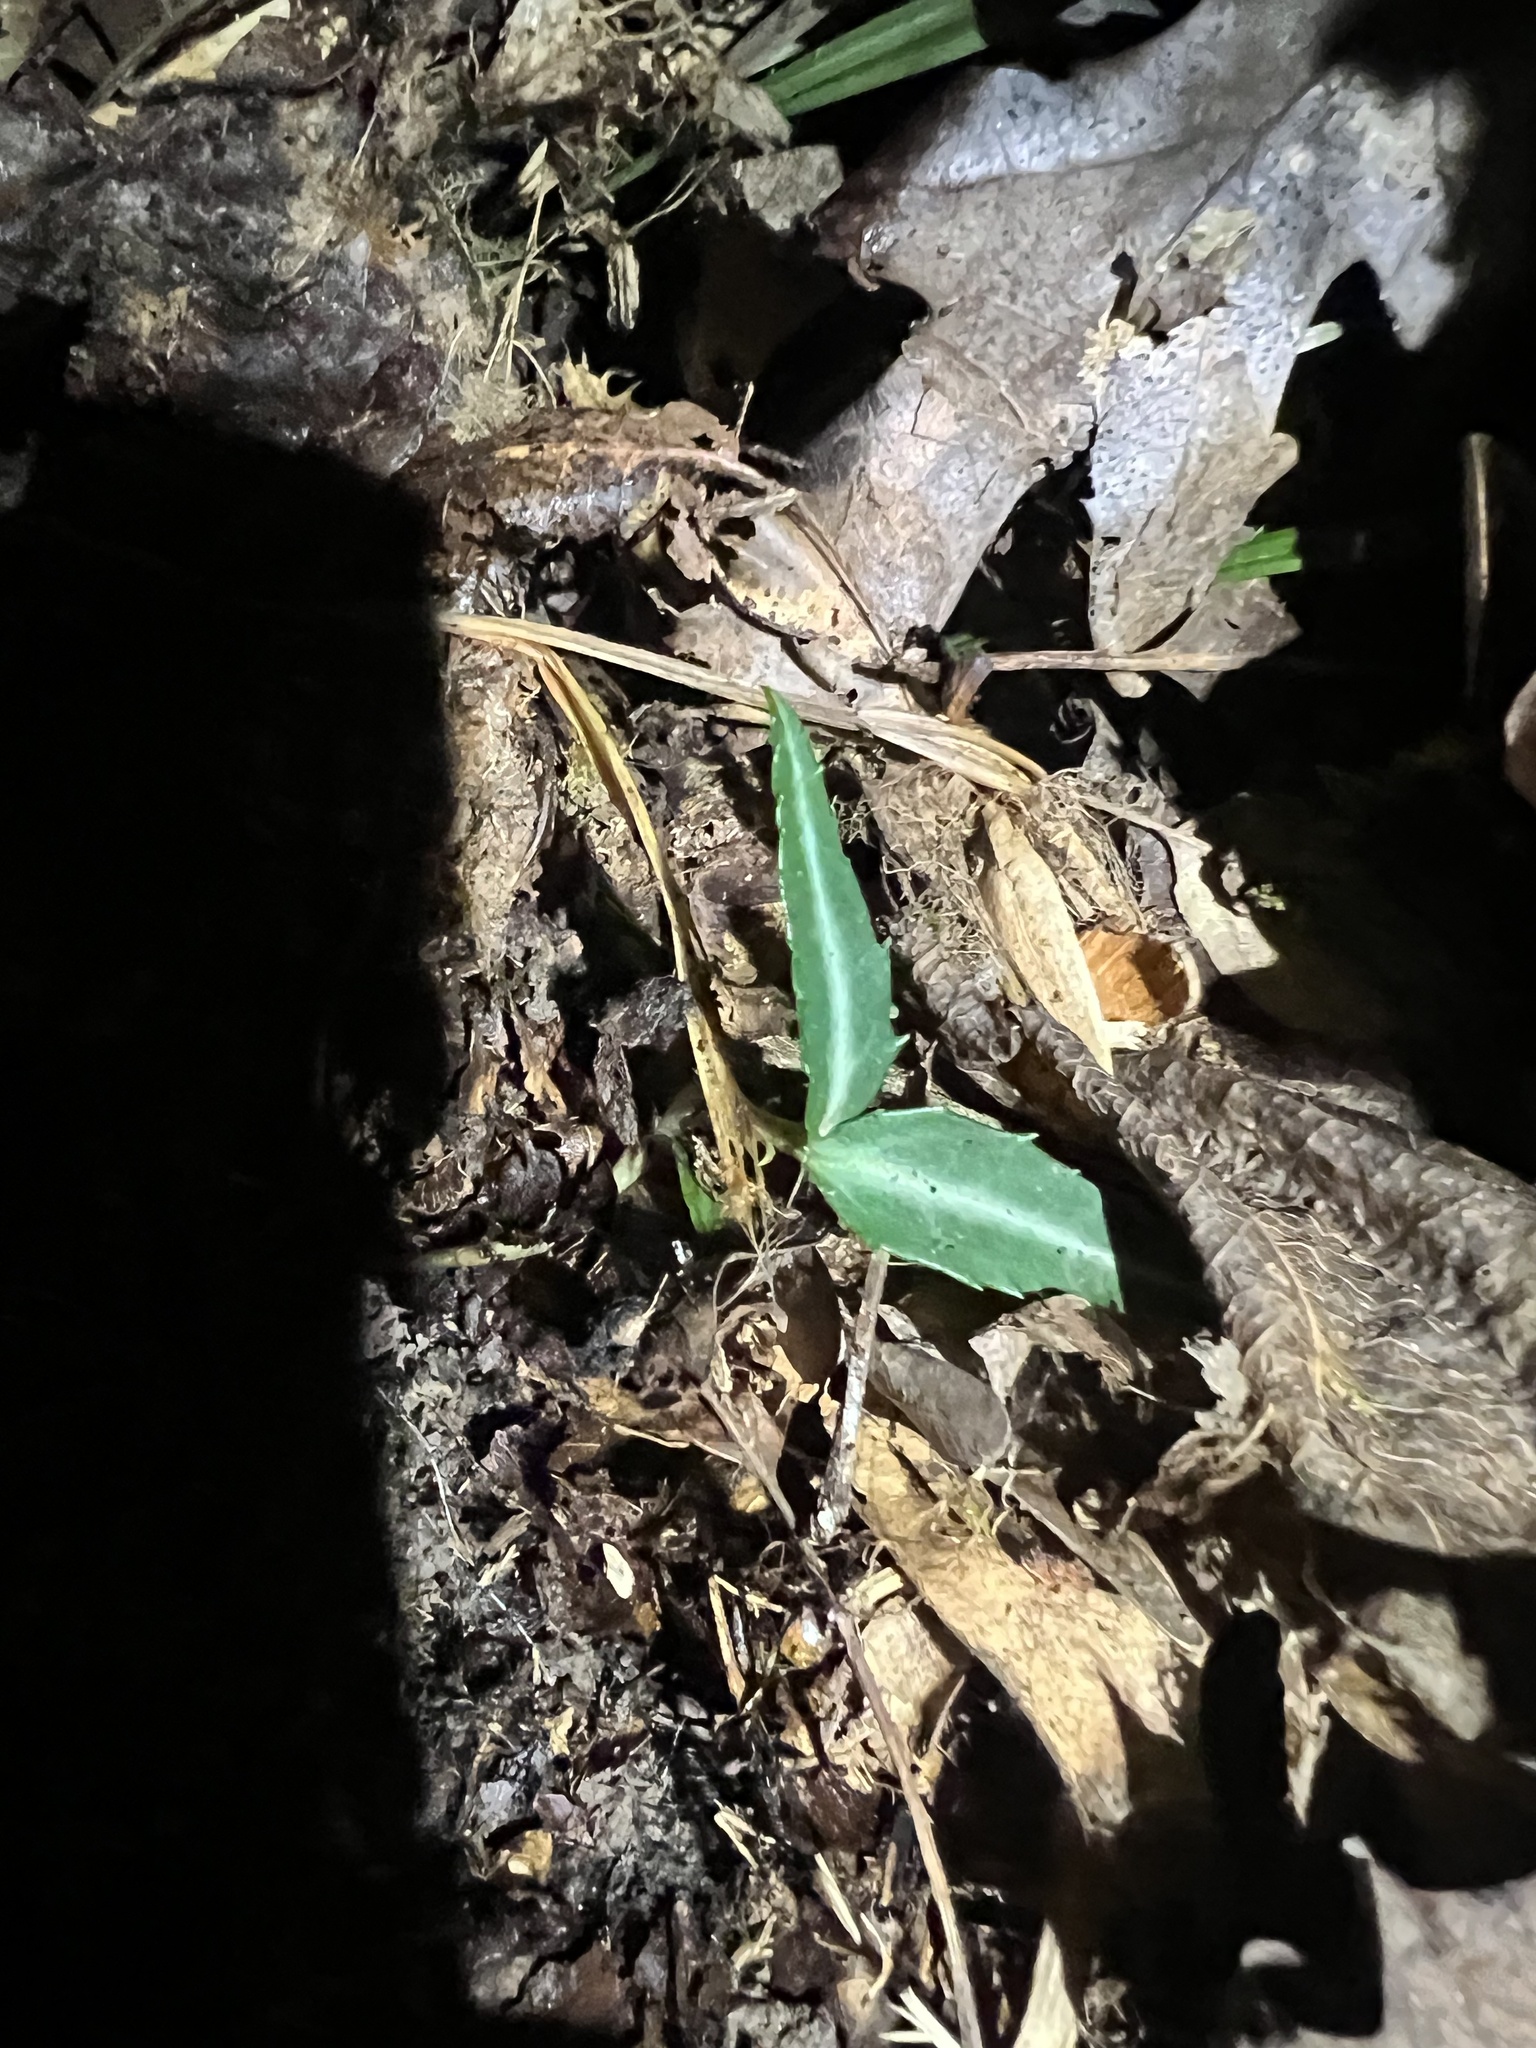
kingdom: Plantae
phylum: Tracheophyta
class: Magnoliopsida
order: Ericales
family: Ericaceae
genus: Chimaphila
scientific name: Chimaphila maculata
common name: Spotted pipsissewa
